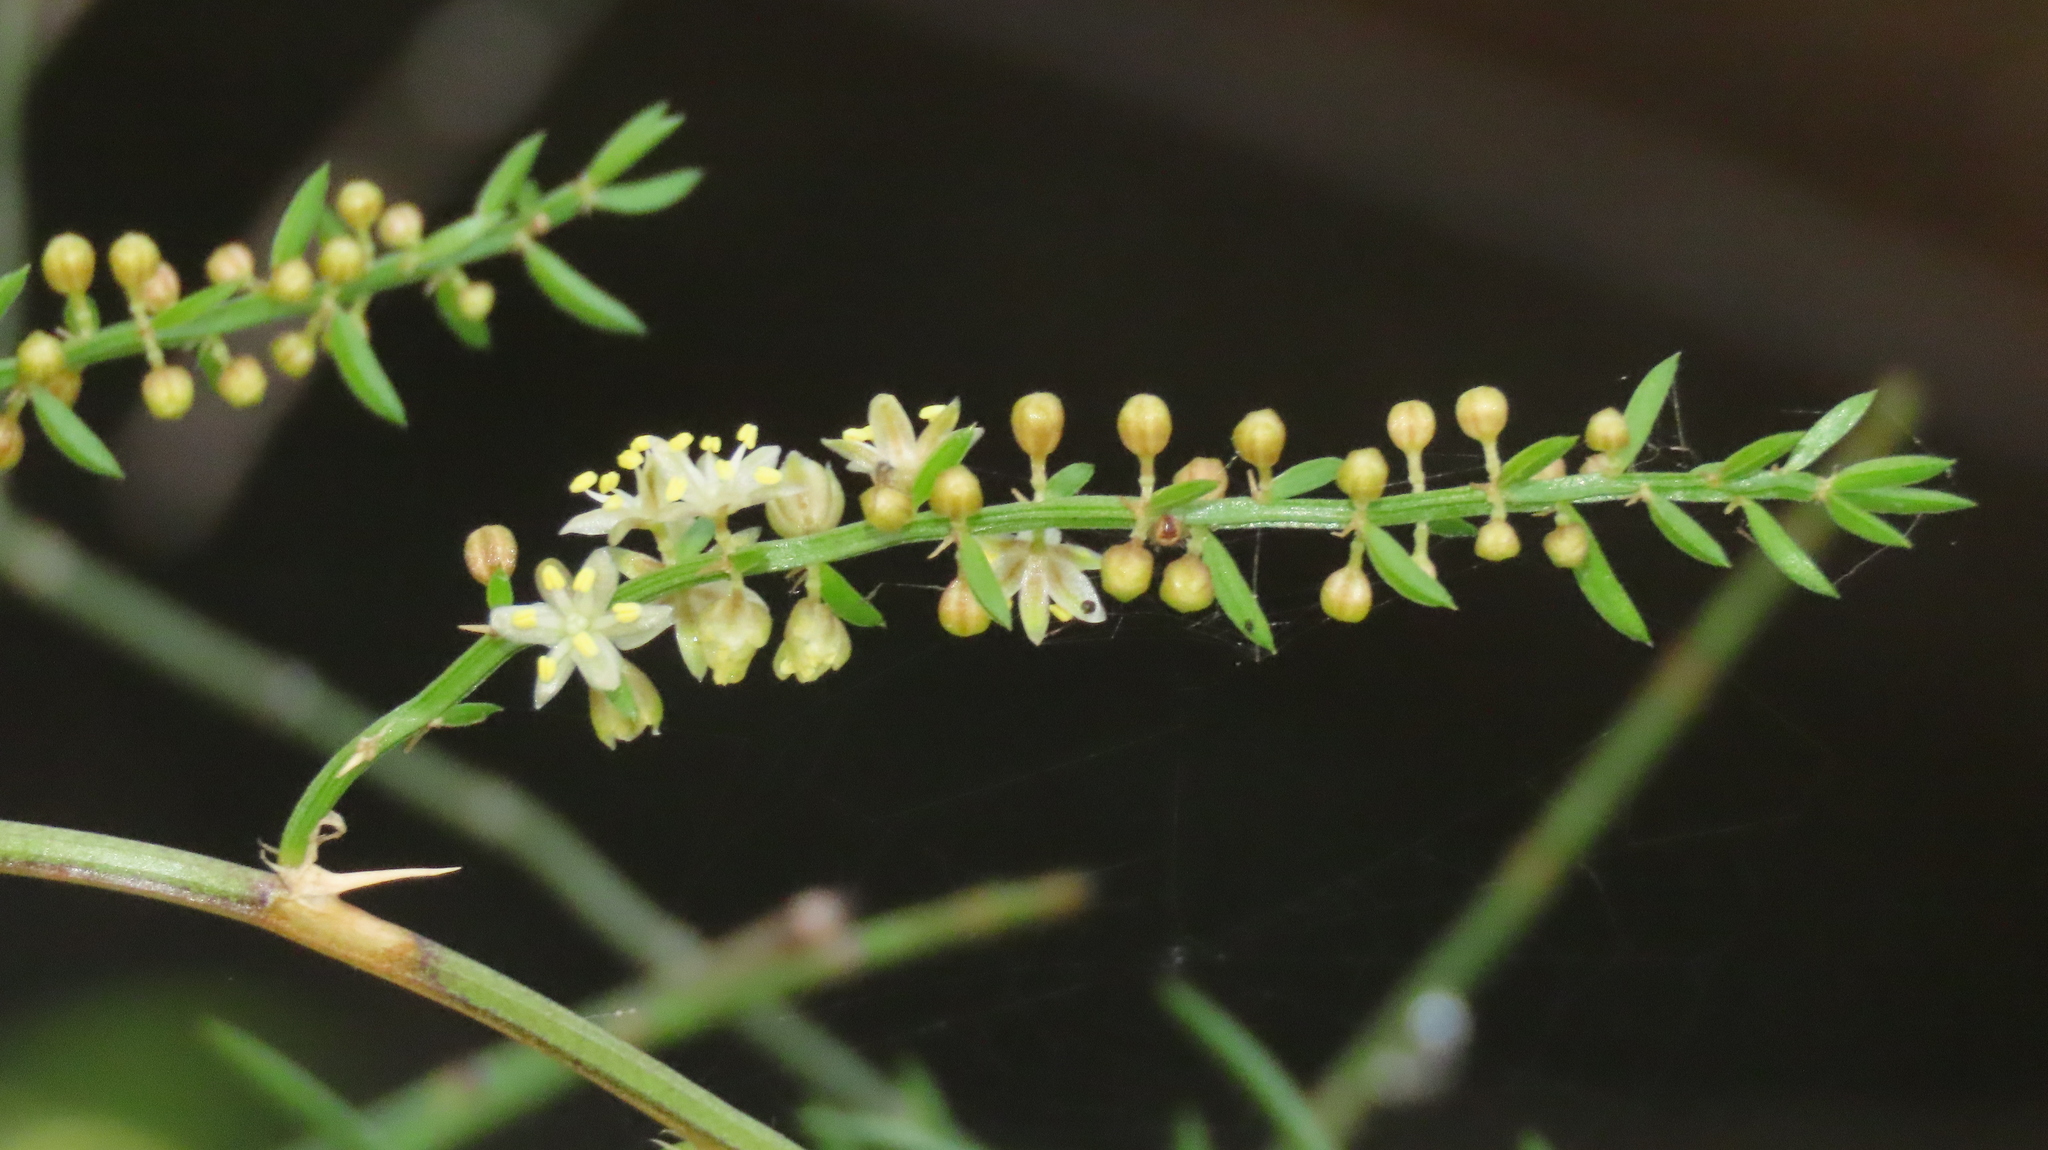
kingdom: Plantae
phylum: Tracheophyta
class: Liliopsida
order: Asparagales
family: Asparagaceae
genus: Asparagus
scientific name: Asparagus cochinchinensis
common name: Chinese asparagus
